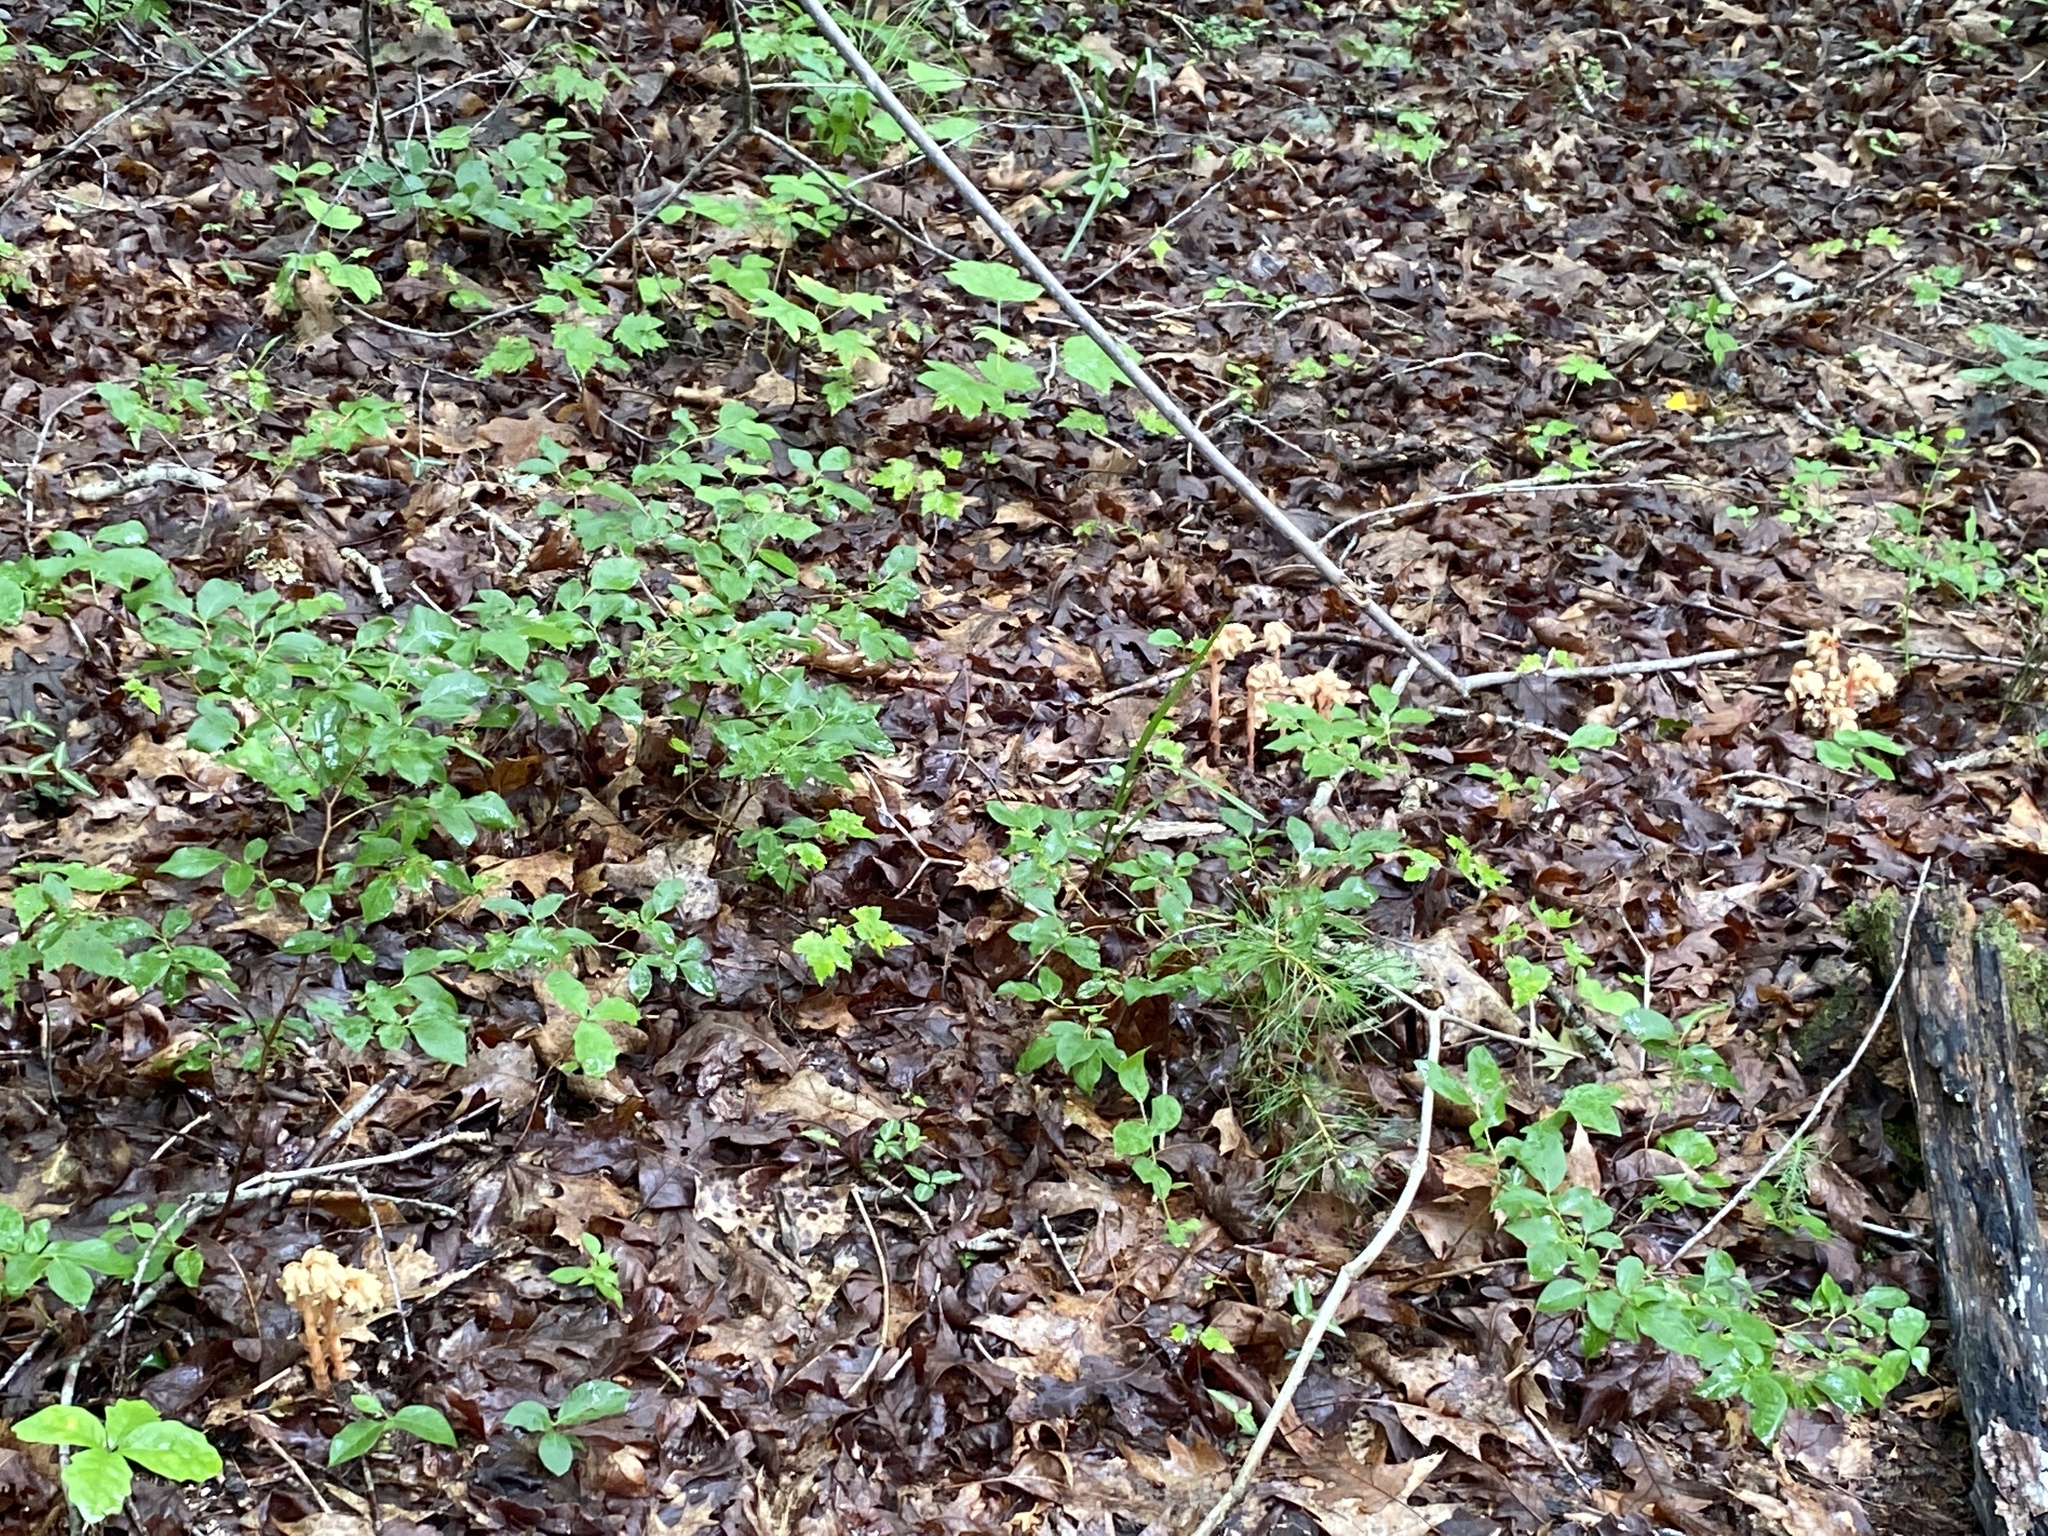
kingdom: Plantae
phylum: Tracheophyta
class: Magnoliopsida
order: Ericales
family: Ericaceae
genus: Hypopitys
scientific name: Hypopitys monotropa
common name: Yellow bird's-nest
